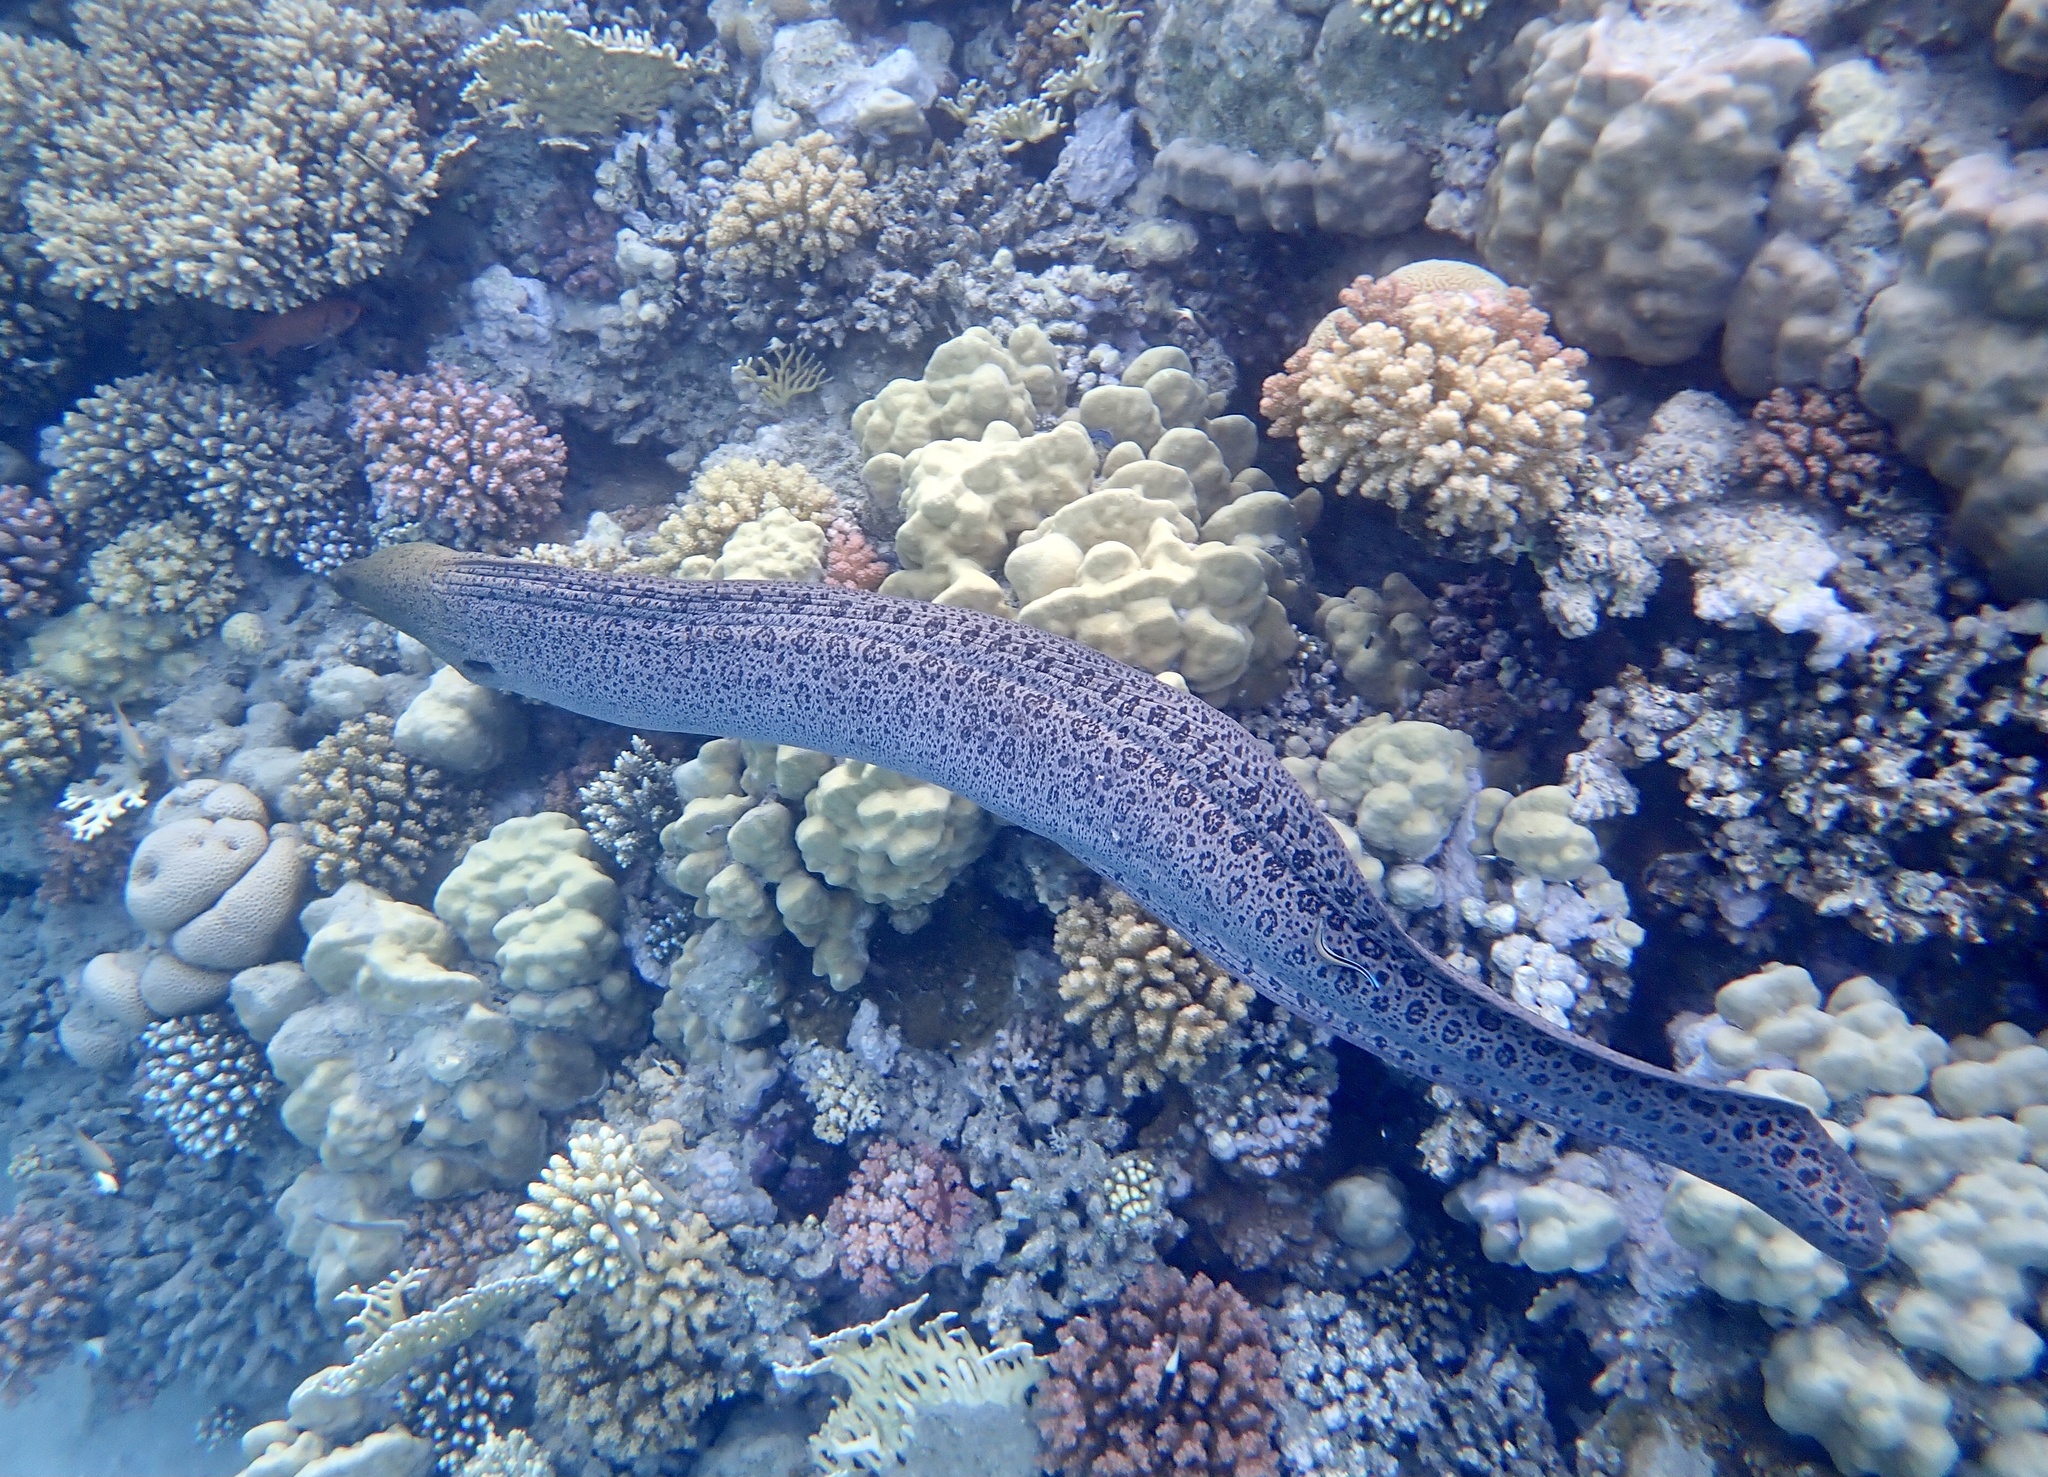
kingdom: Animalia
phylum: Chordata
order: Anguilliformes
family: Muraenidae
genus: Gymnothorax
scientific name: Gymnothorax javanicus
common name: Giant moray
